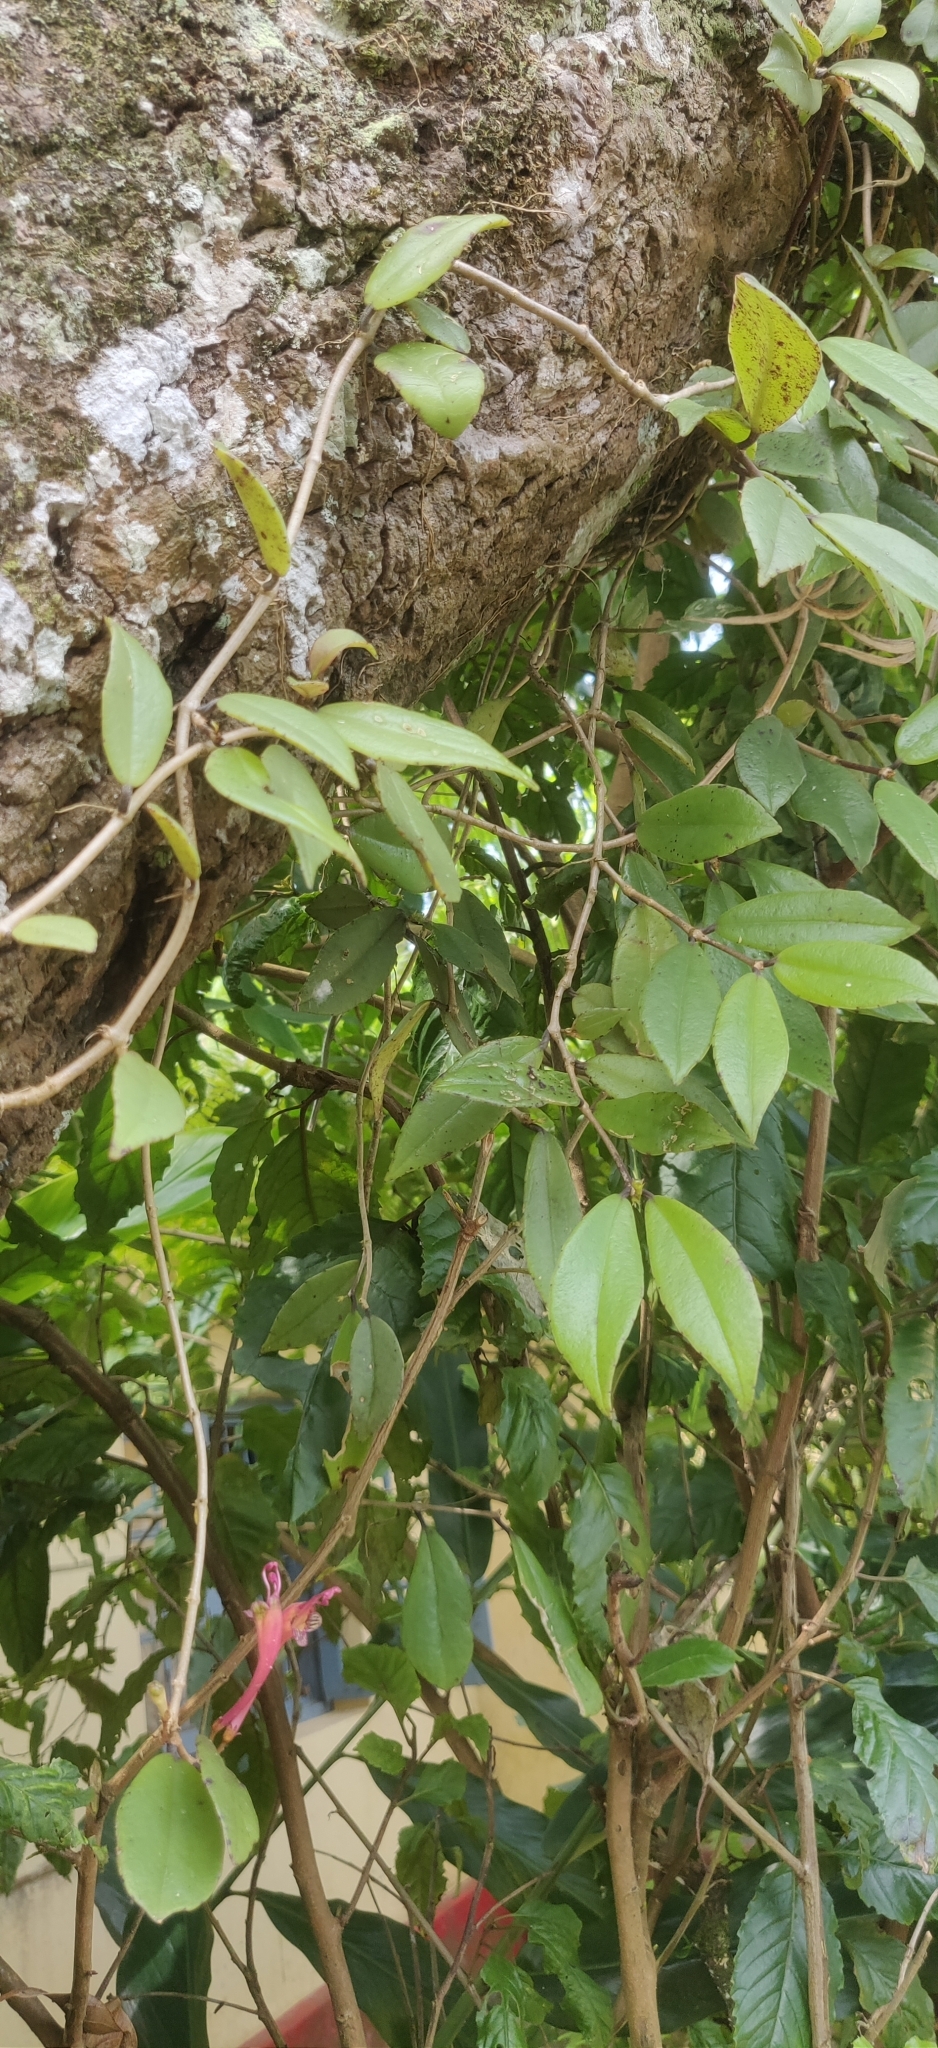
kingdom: Plantae
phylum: Tracheophyta
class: Magnoliopsida
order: Lamiales
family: Gesneriaceae
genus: Aeschynanthus
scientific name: Aeschynanthus perrottetii
